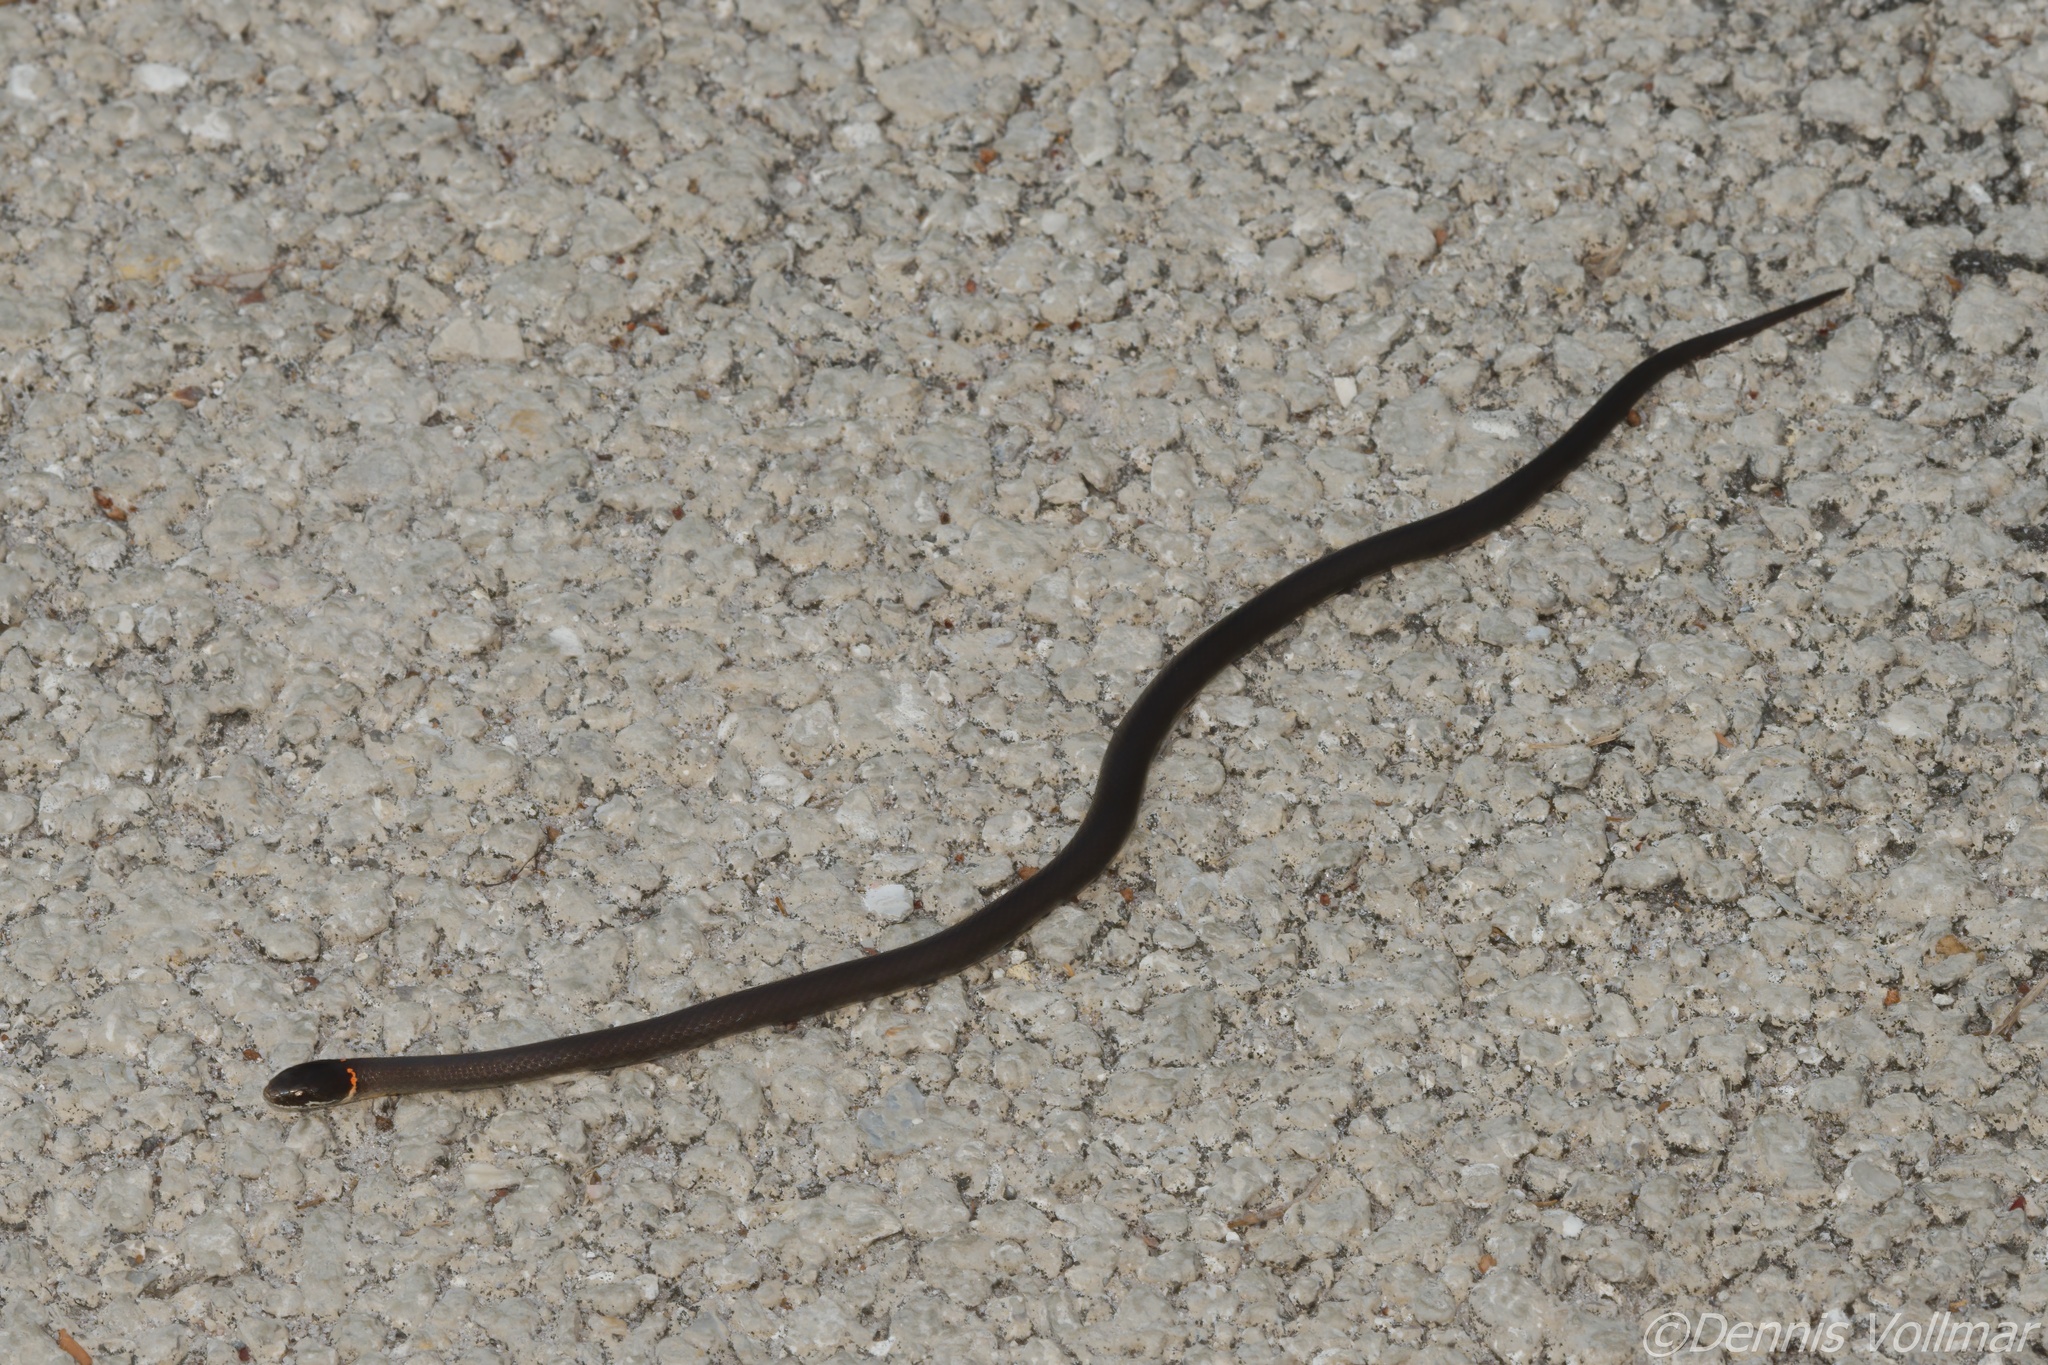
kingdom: Animalia
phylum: Chordata
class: Squamata
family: Colubridae
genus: Diadophis
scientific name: Diadophis punctatus
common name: Ringneck snake
